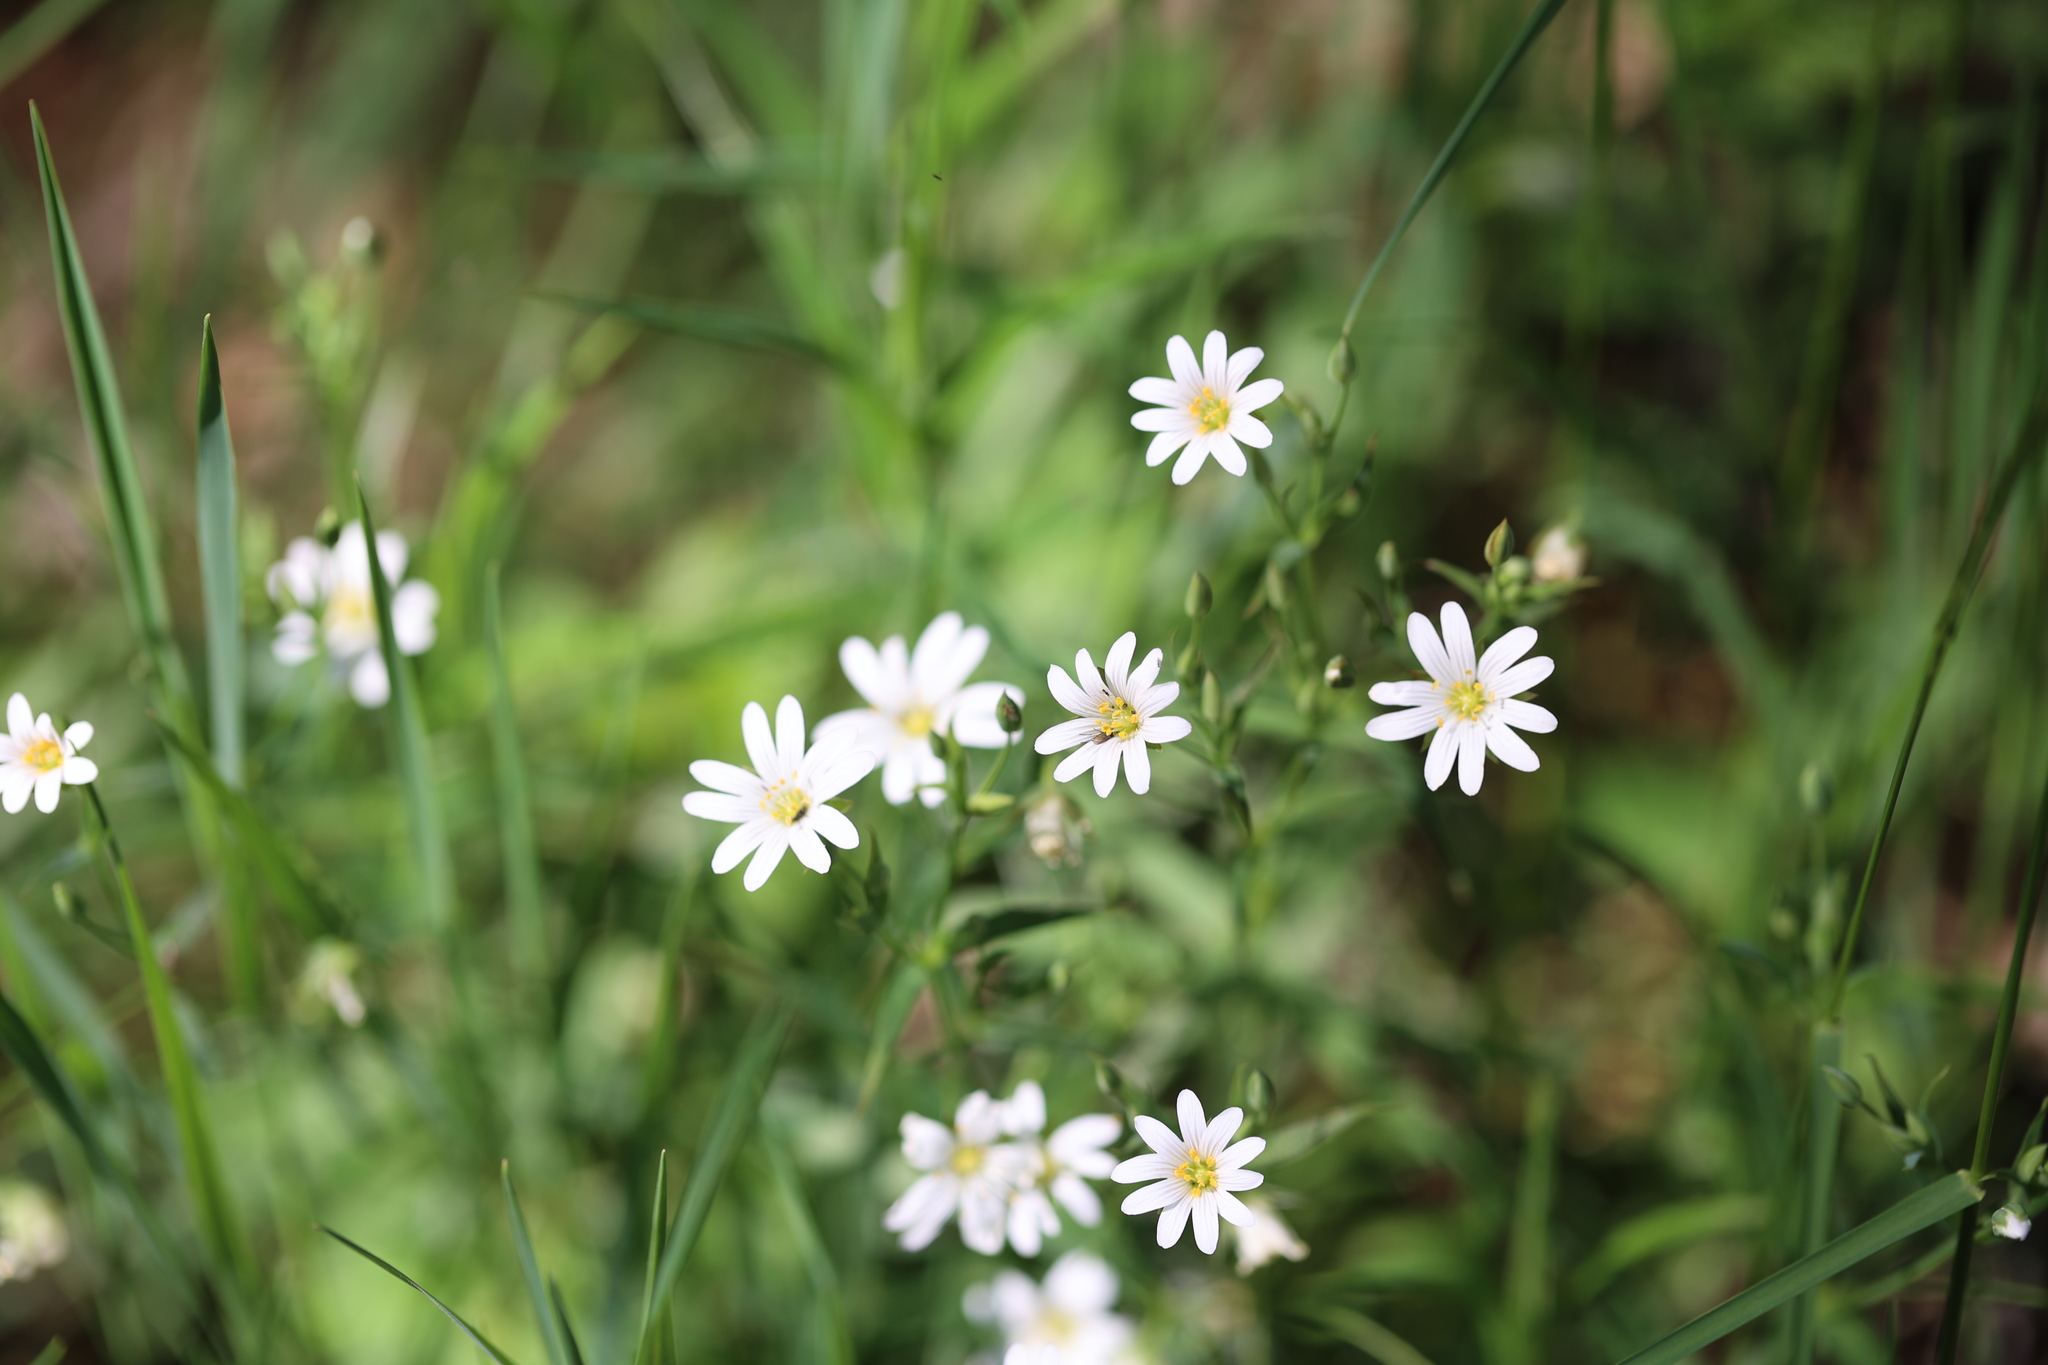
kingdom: Plantae
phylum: Tracheophyta
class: Magnoliopsida
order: Caryophyllales
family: Caryophyllaceae
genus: Rabelera
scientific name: Rabelera holostea
